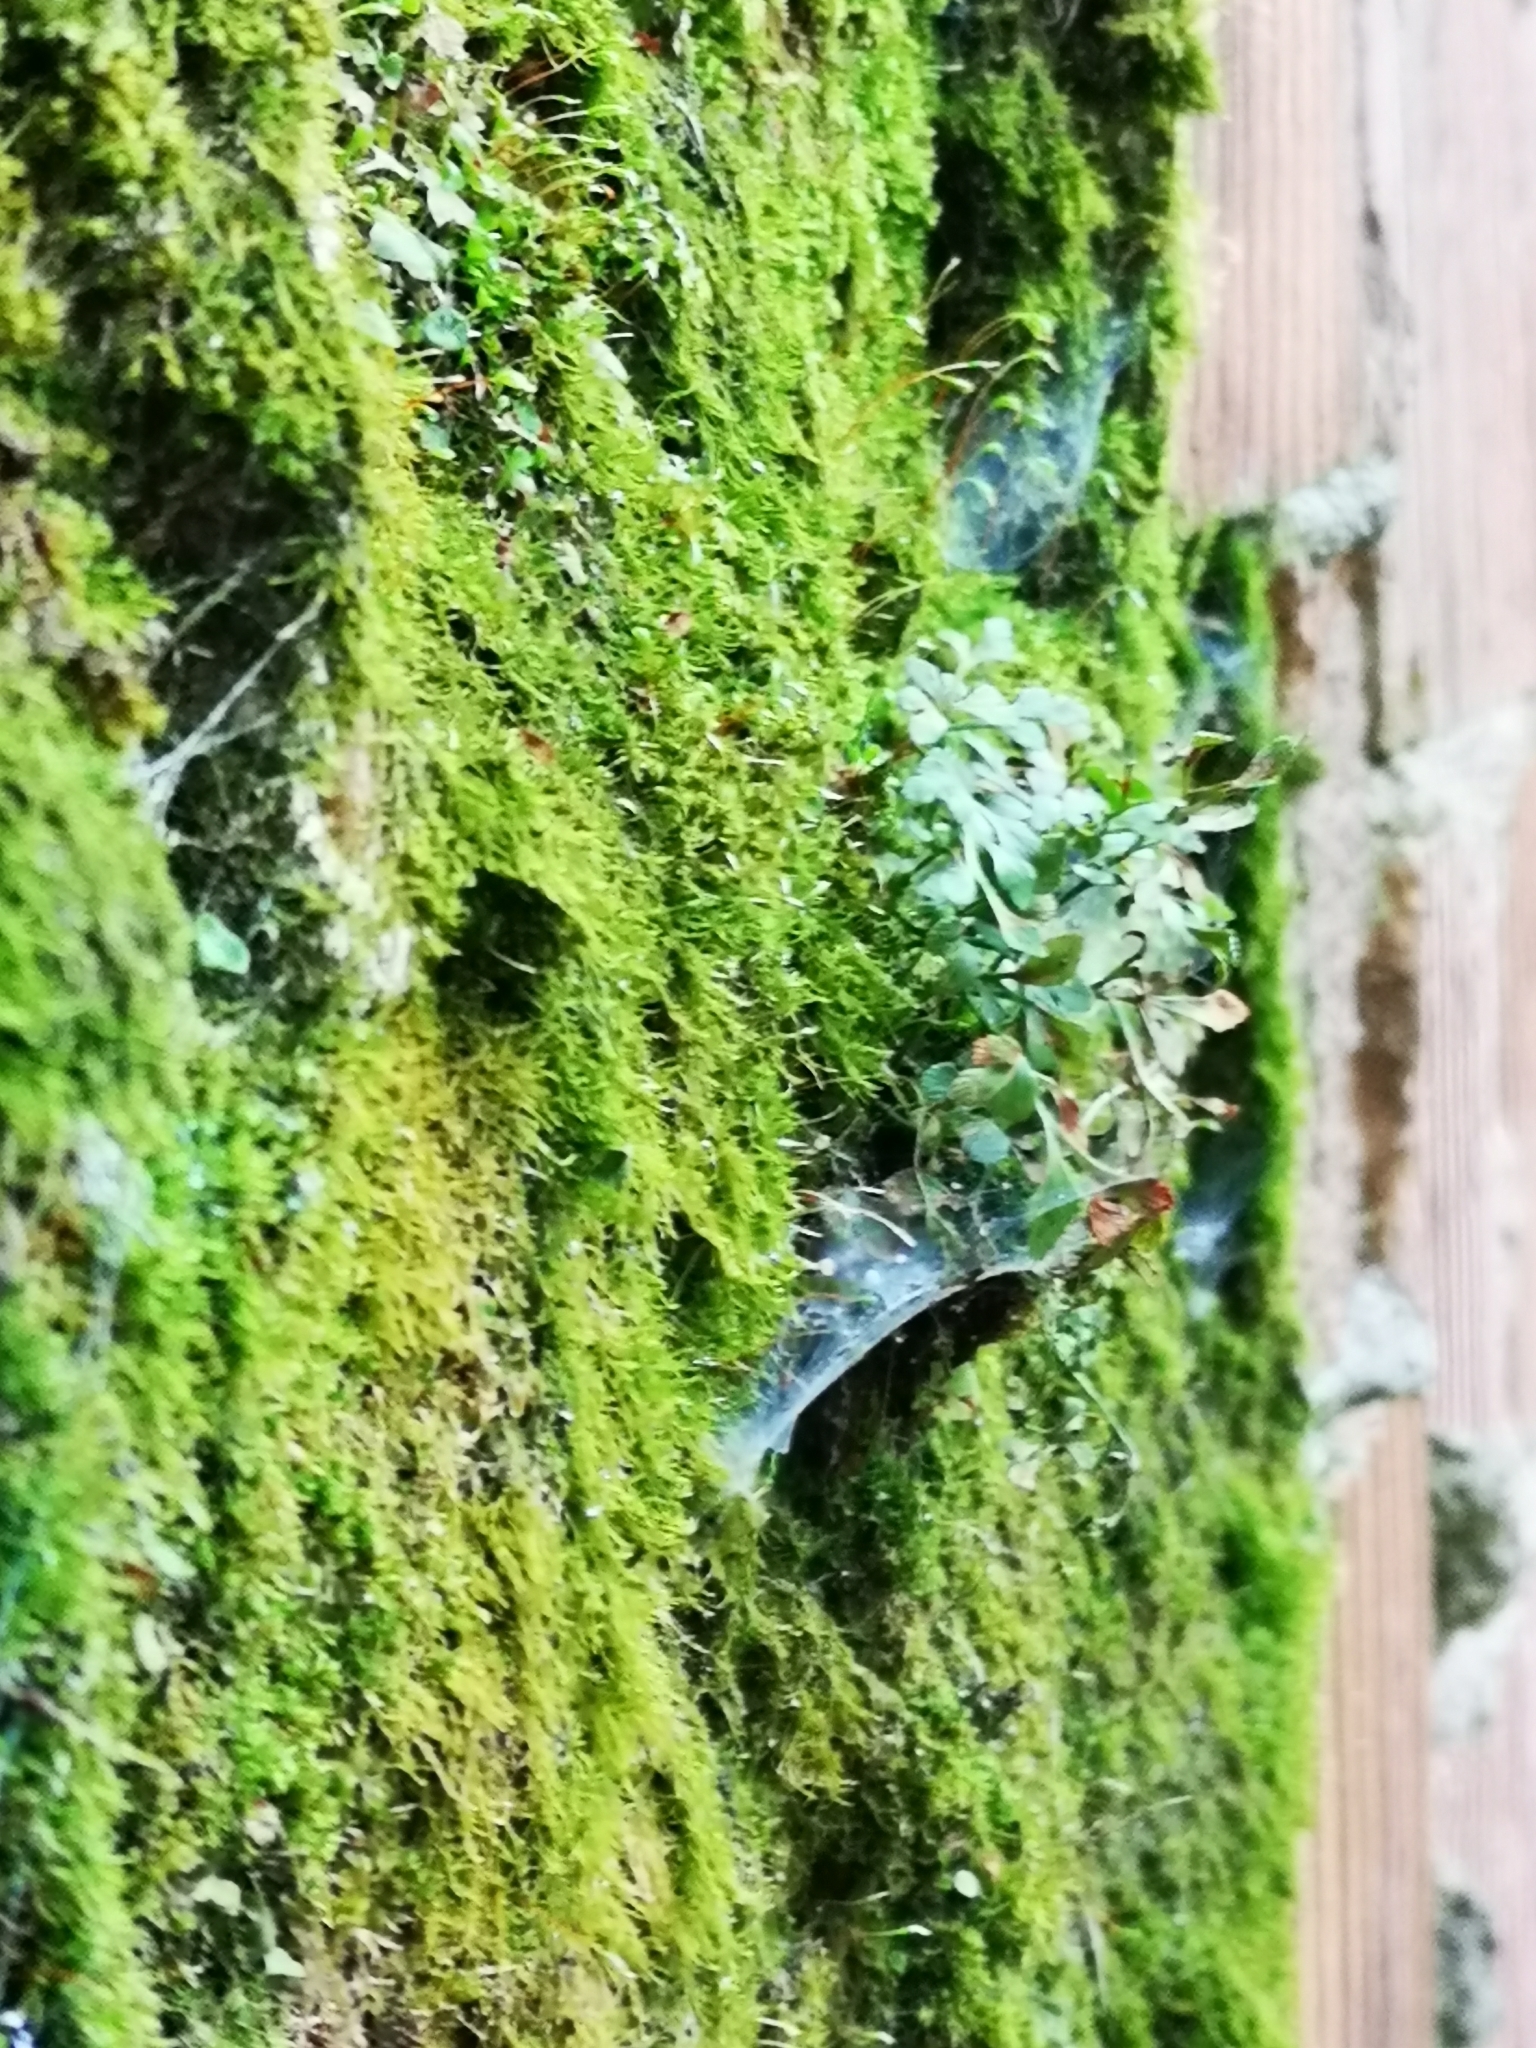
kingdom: Plantae
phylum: Tracheophyta
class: Polypodiopsida
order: Polypodiales
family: Aspleniaceae
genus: Asplenium
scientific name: Asplenium ruta-muraria
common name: Wall-rue
